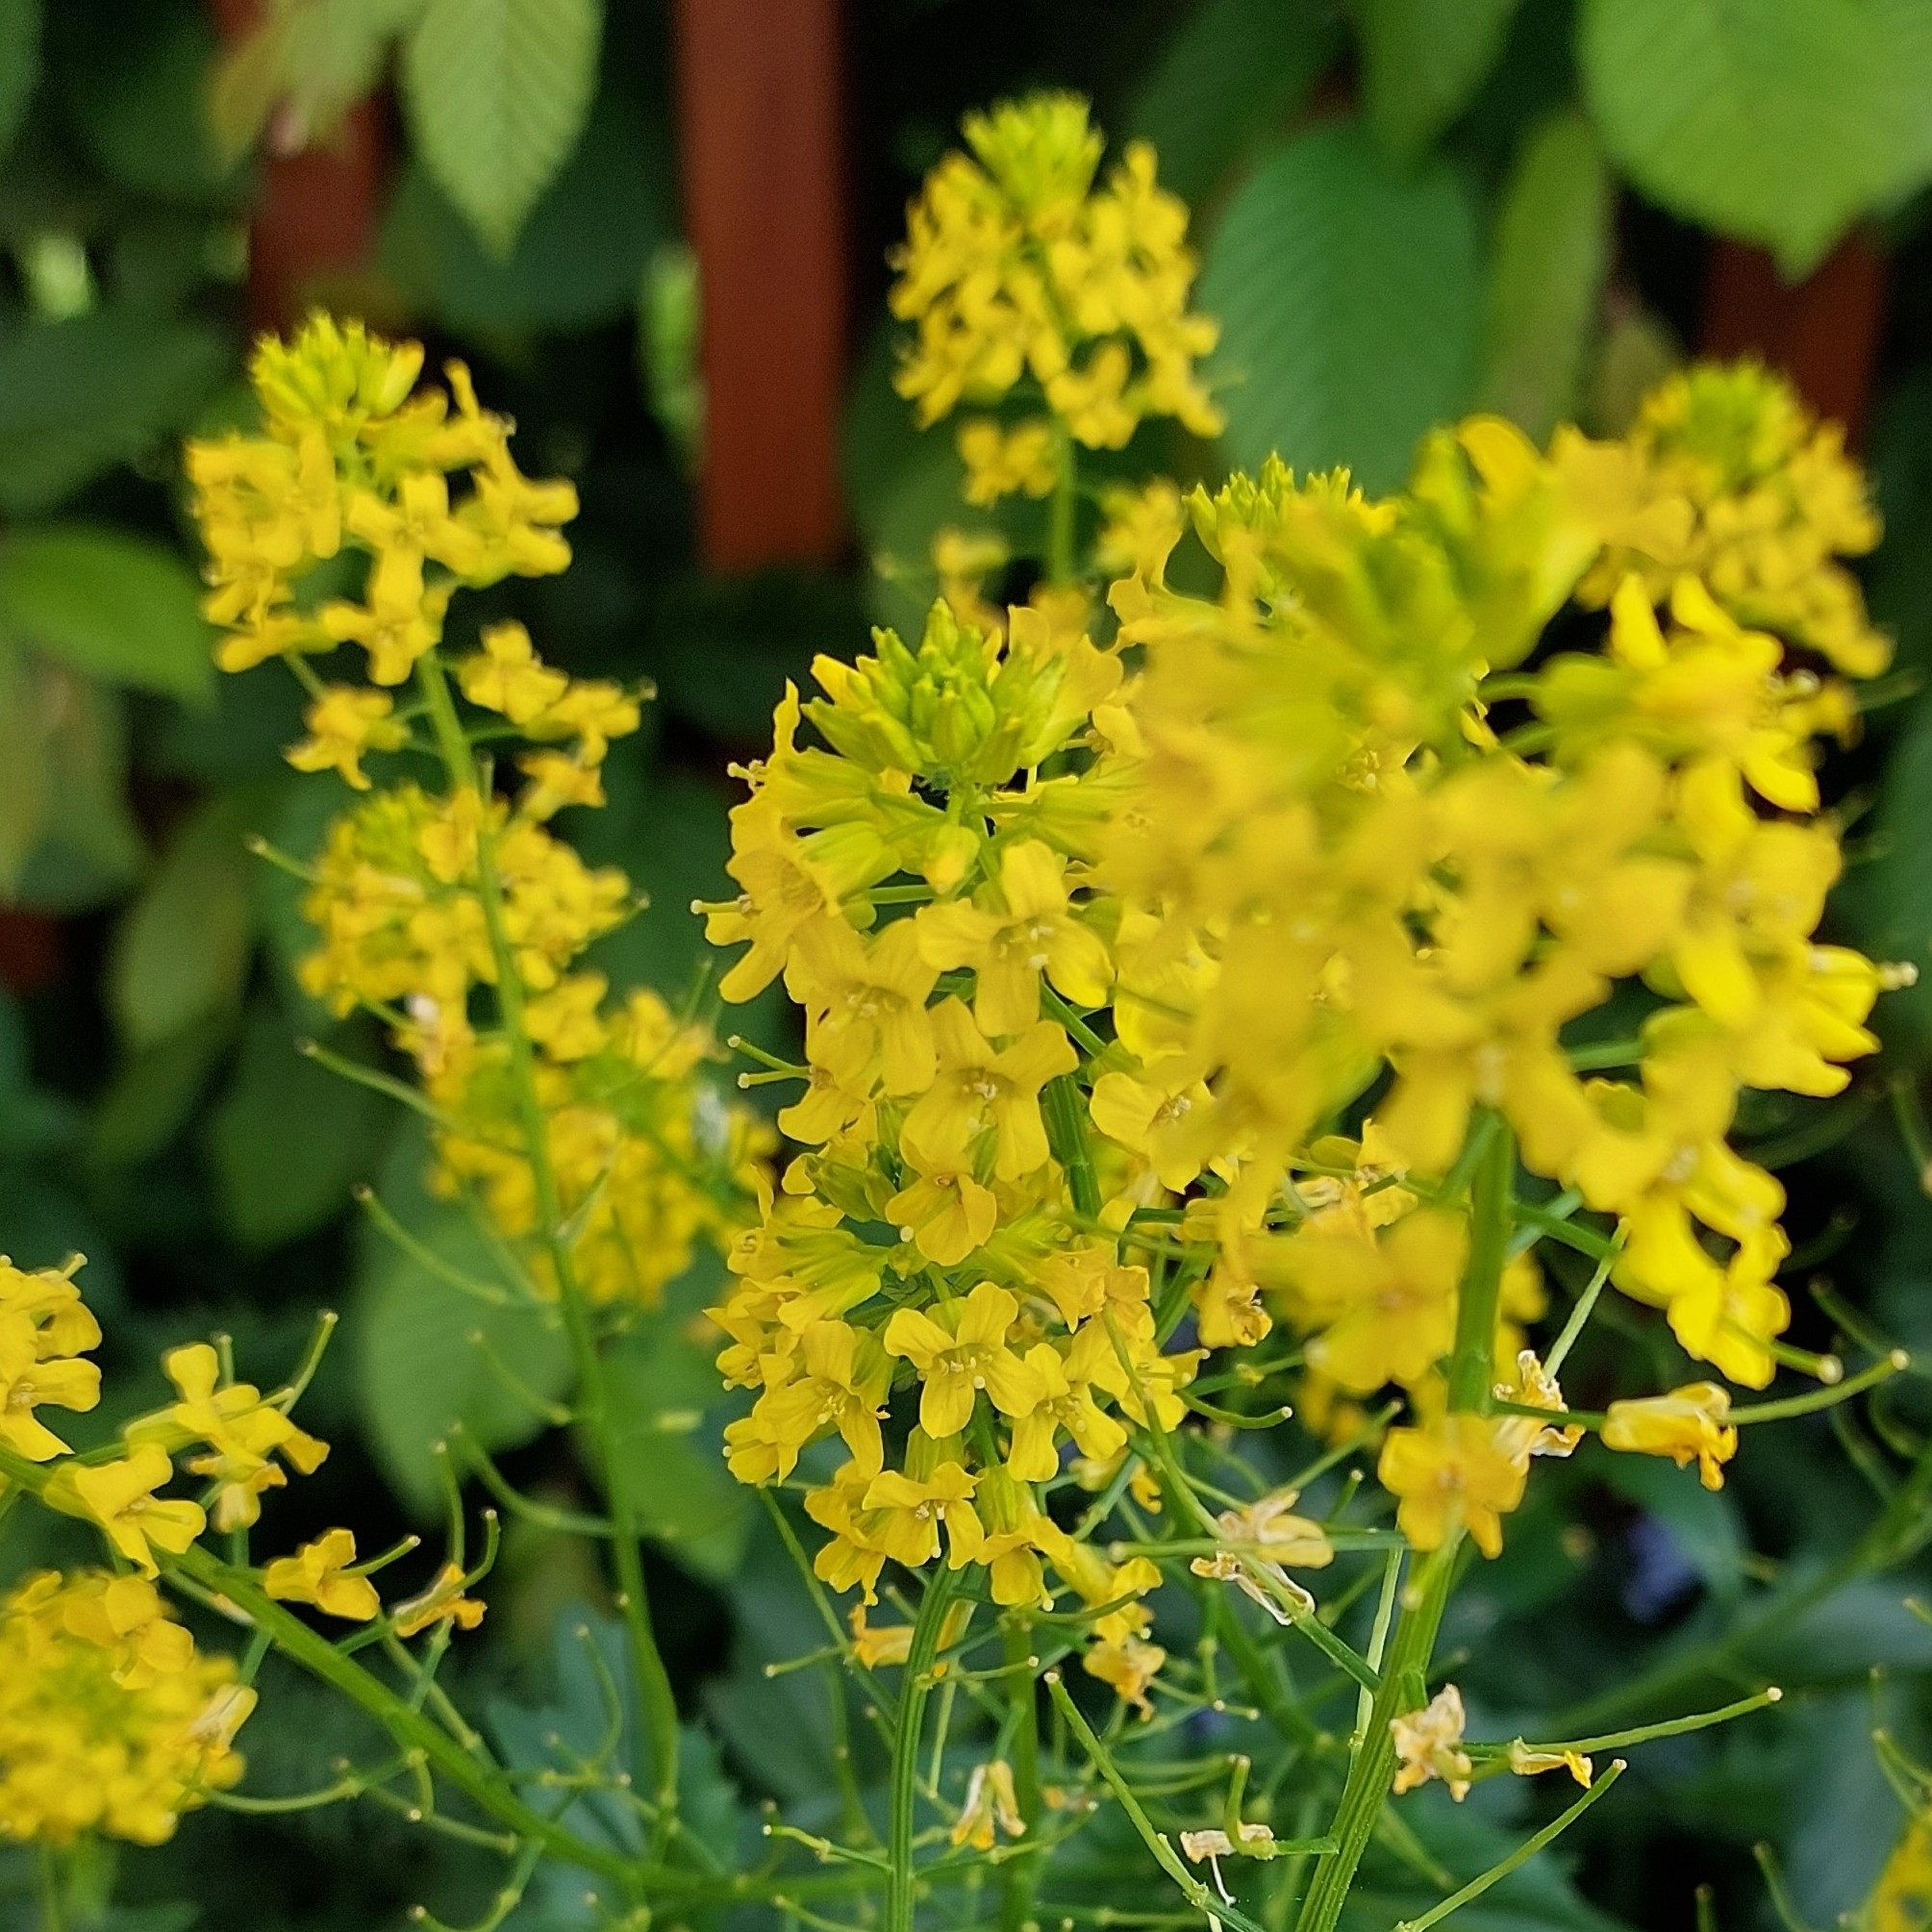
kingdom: Plantae
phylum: Tracheophyta
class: Magnoliopsida
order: Brassicales
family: Brassicaceae
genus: Barbarea
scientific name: Barbarea vulgaris
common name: Cressy-greens
